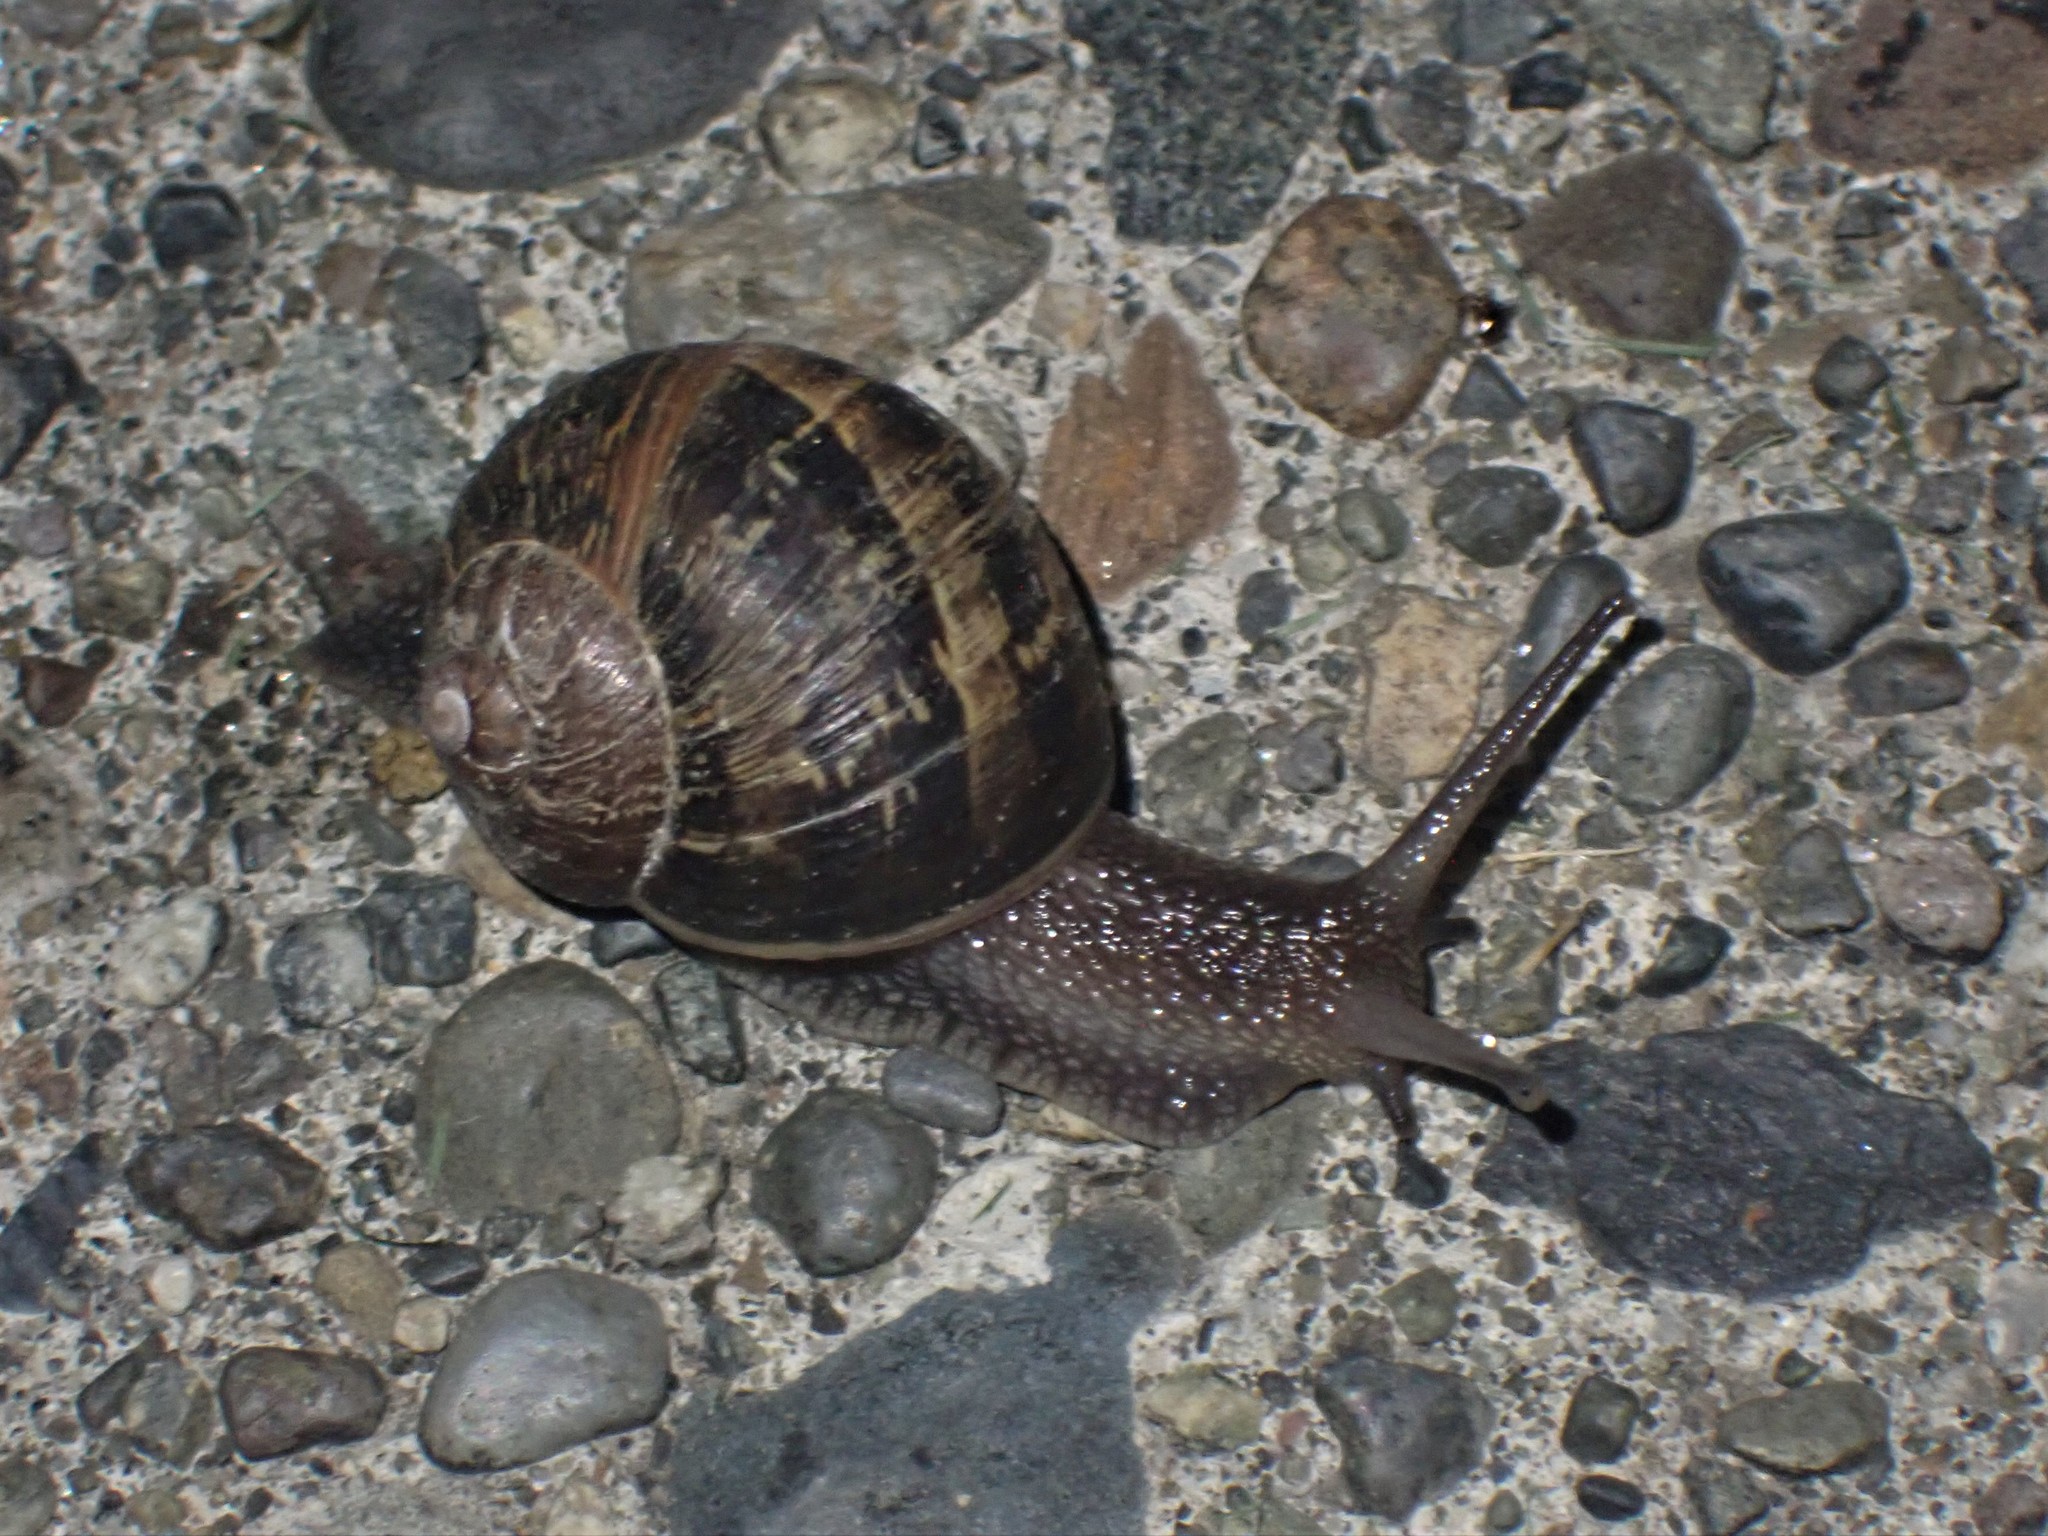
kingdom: Animalia
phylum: Mollusca
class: Gastropoda
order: Stylommatophora
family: Helicidae
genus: Cornu
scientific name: Cornu aspersum
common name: Brown garden snail
